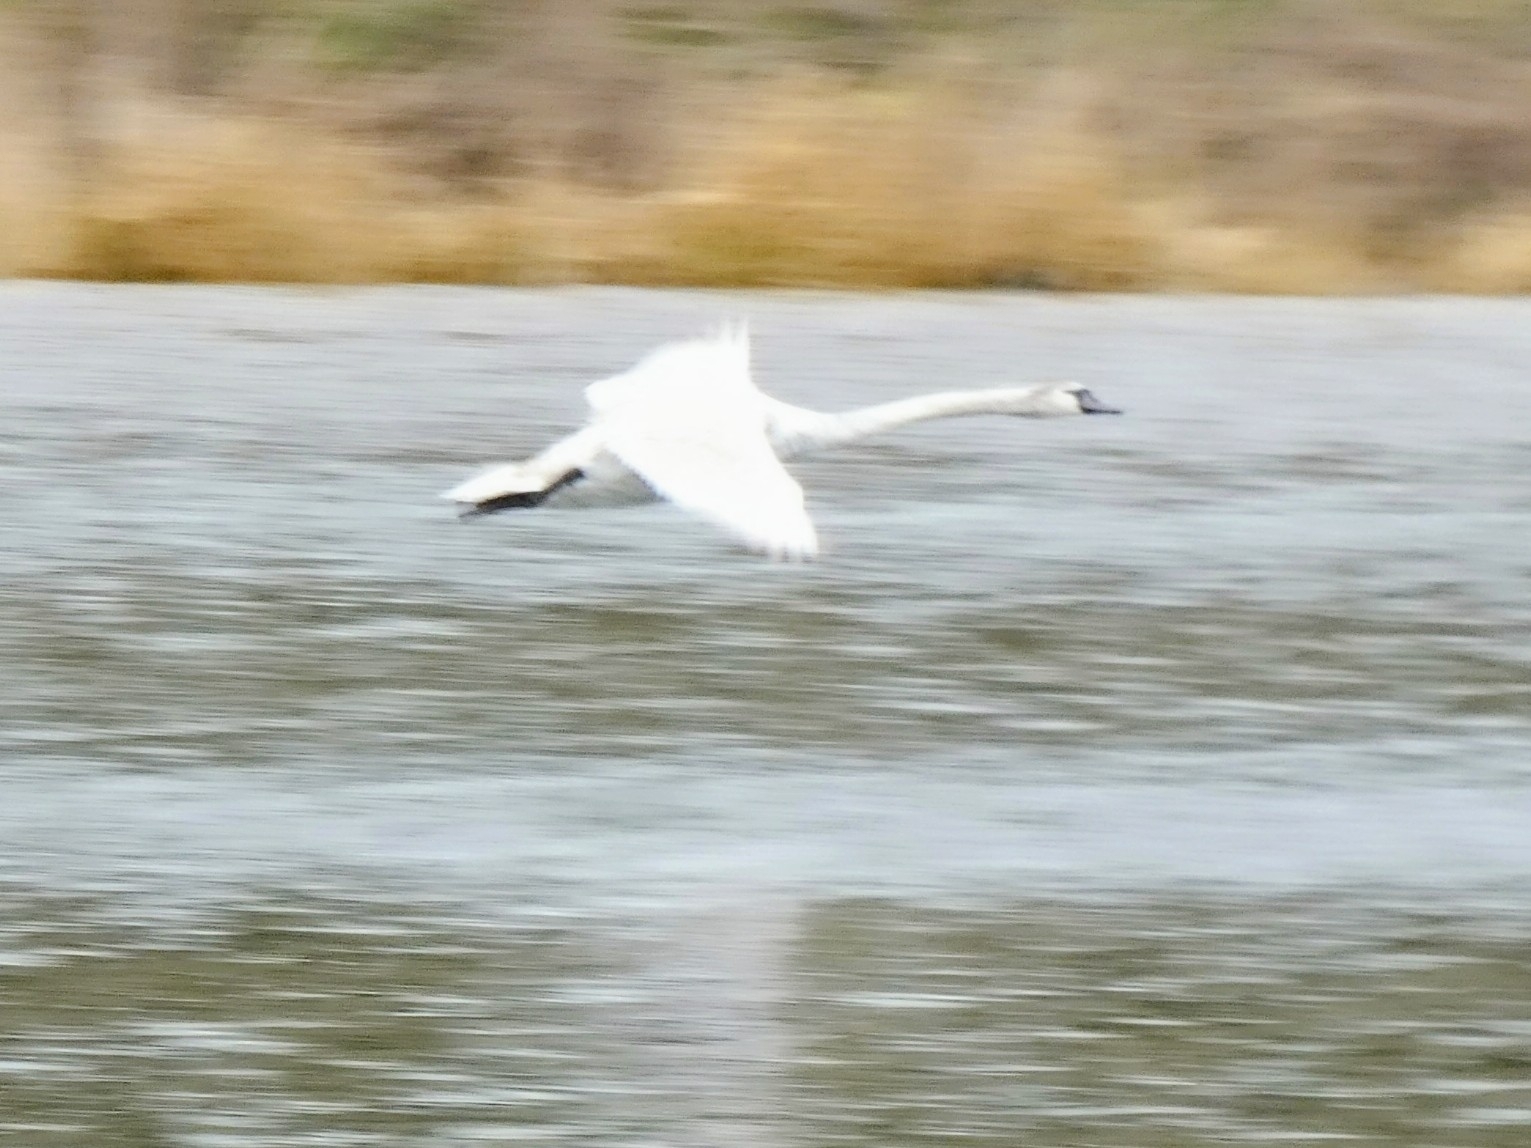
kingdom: Animalia
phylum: Chordata
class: Aves
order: Anseriformes
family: Anatidae
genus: Cygnus
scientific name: Cygnus olor
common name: Mute swan
